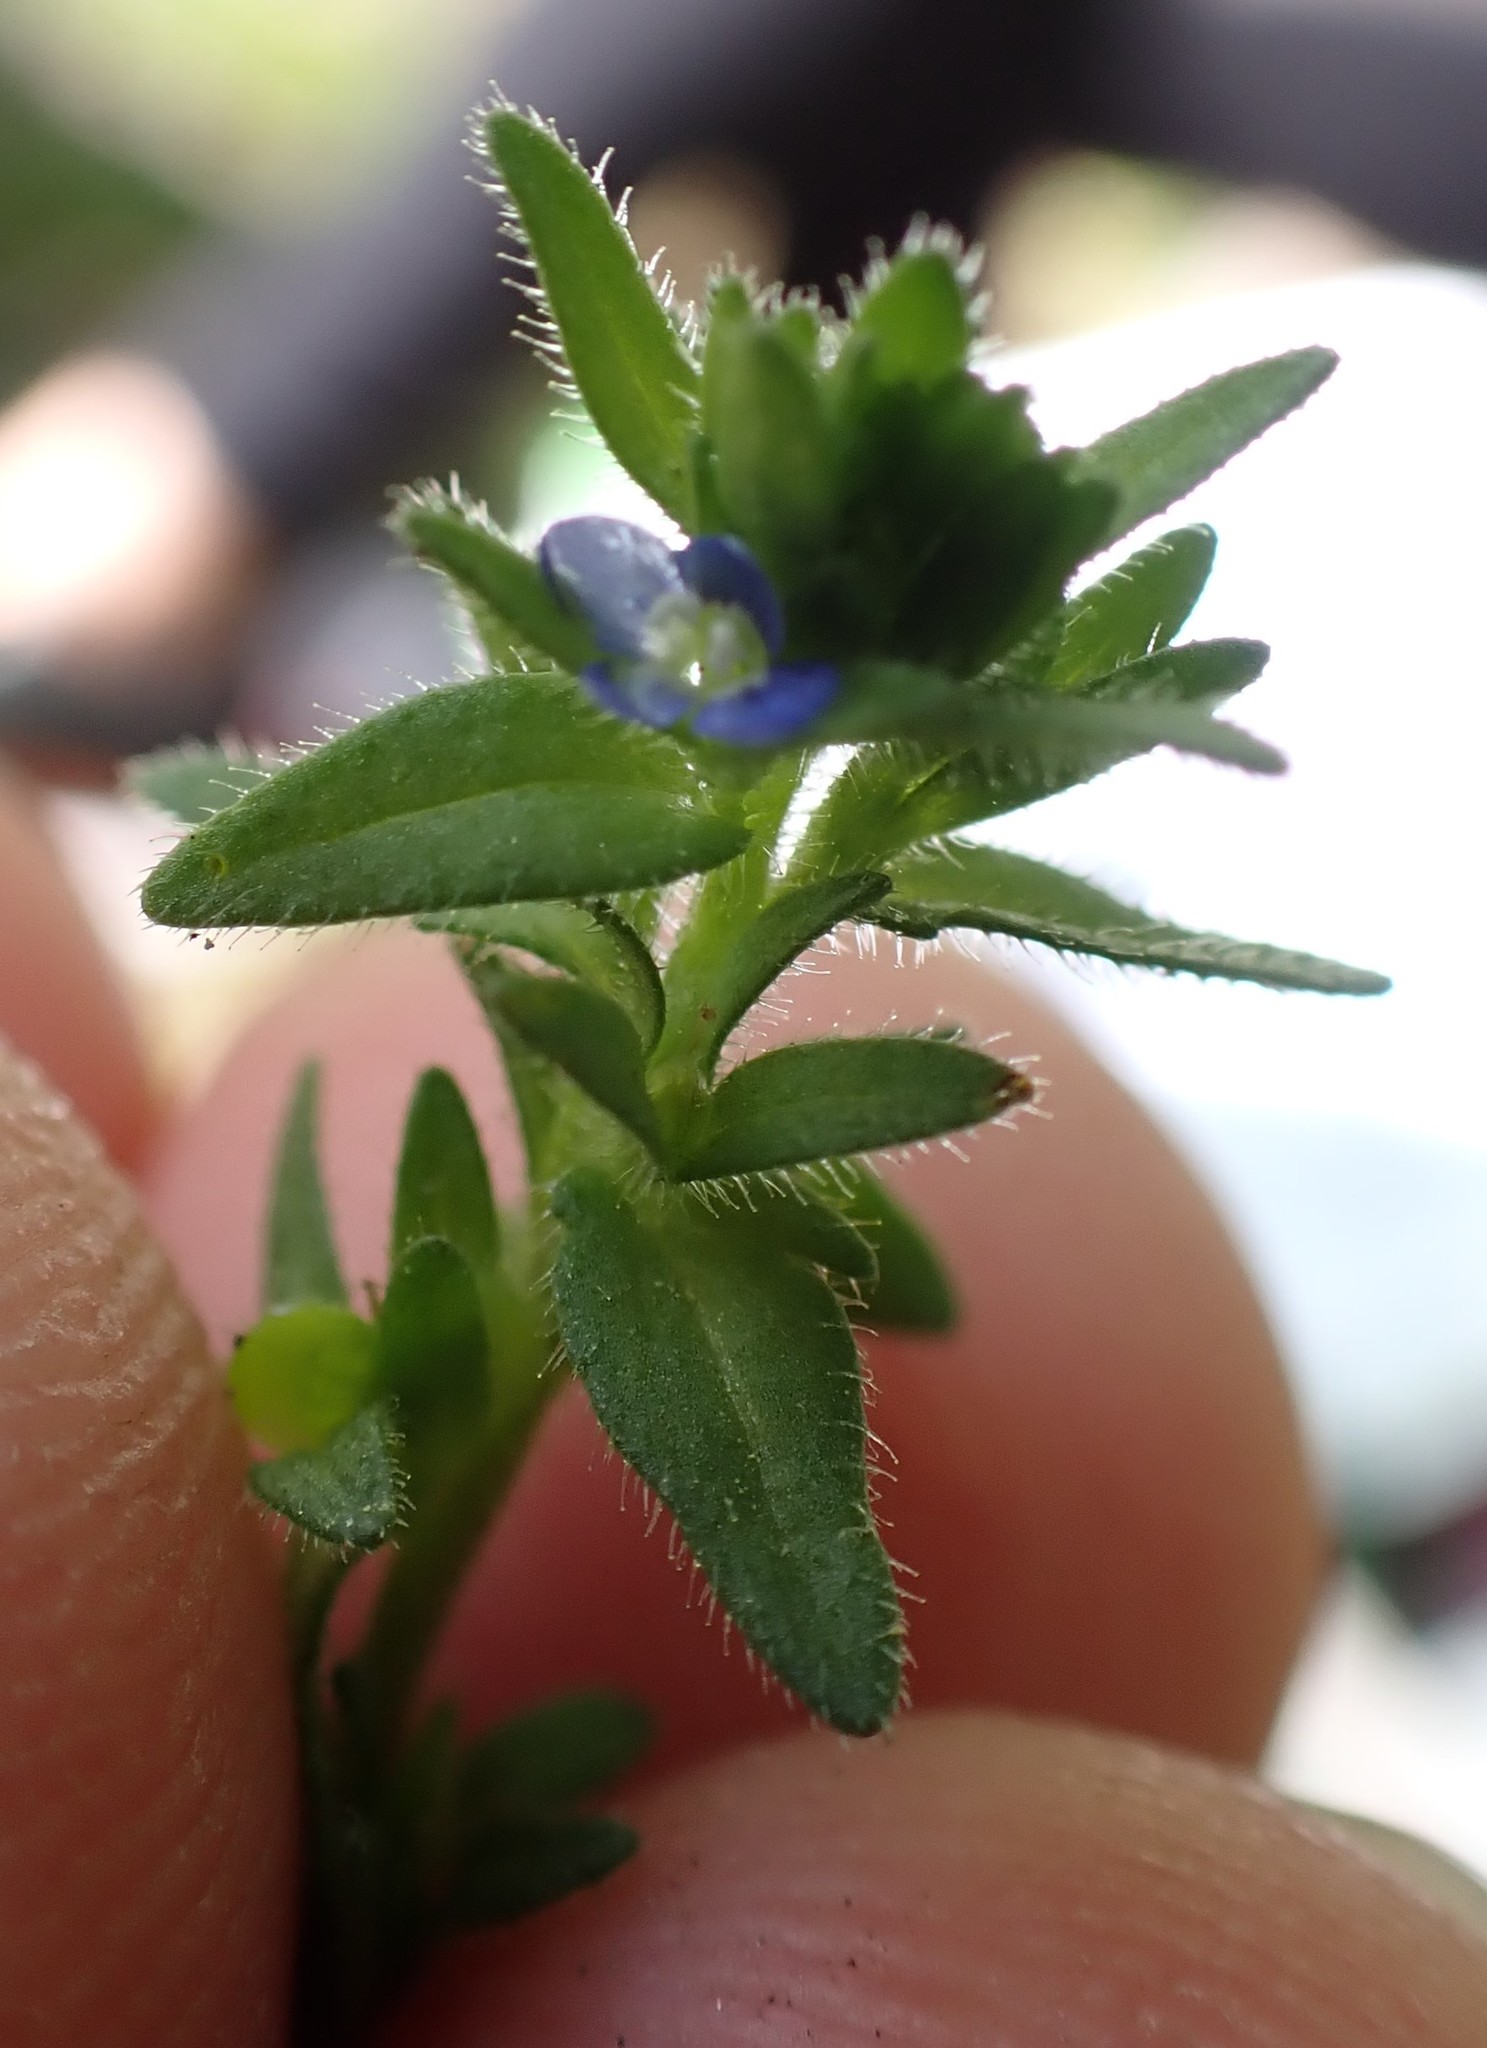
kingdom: Plantae
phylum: Tracheophyta
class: Magnoliopsida
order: Lamiales
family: Plantaginaceae
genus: Veronica
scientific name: Veronica arvensis
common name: Corn speedwell
